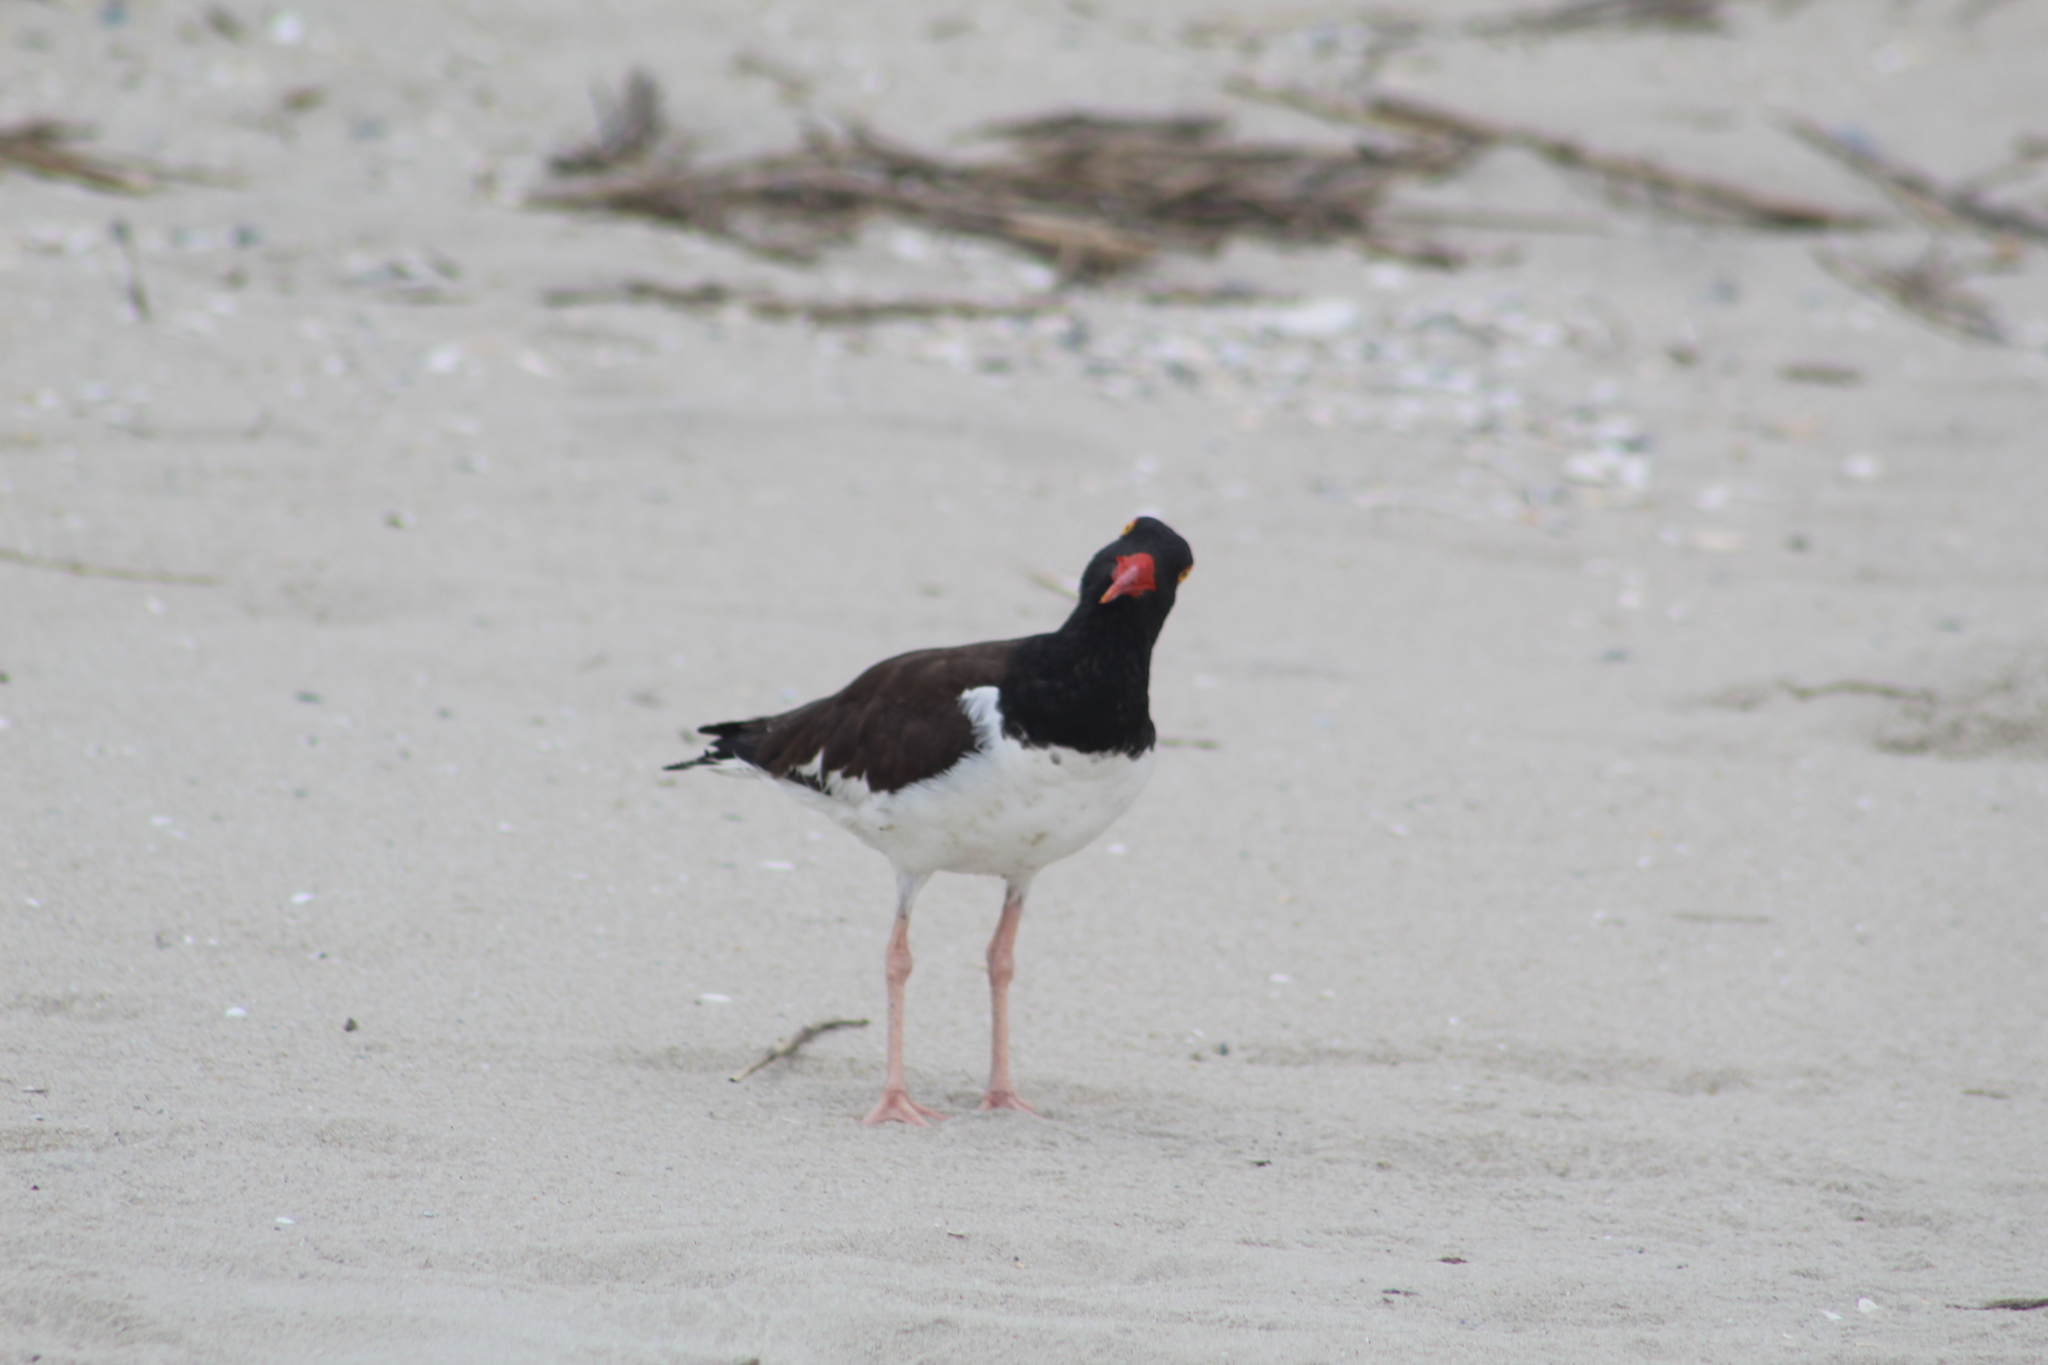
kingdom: Animalia
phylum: Chordata
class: Aves
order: Charadriiformes
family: Haematopodidae
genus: Haematopus
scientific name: Haematopus palliatus
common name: American oystercatcher
